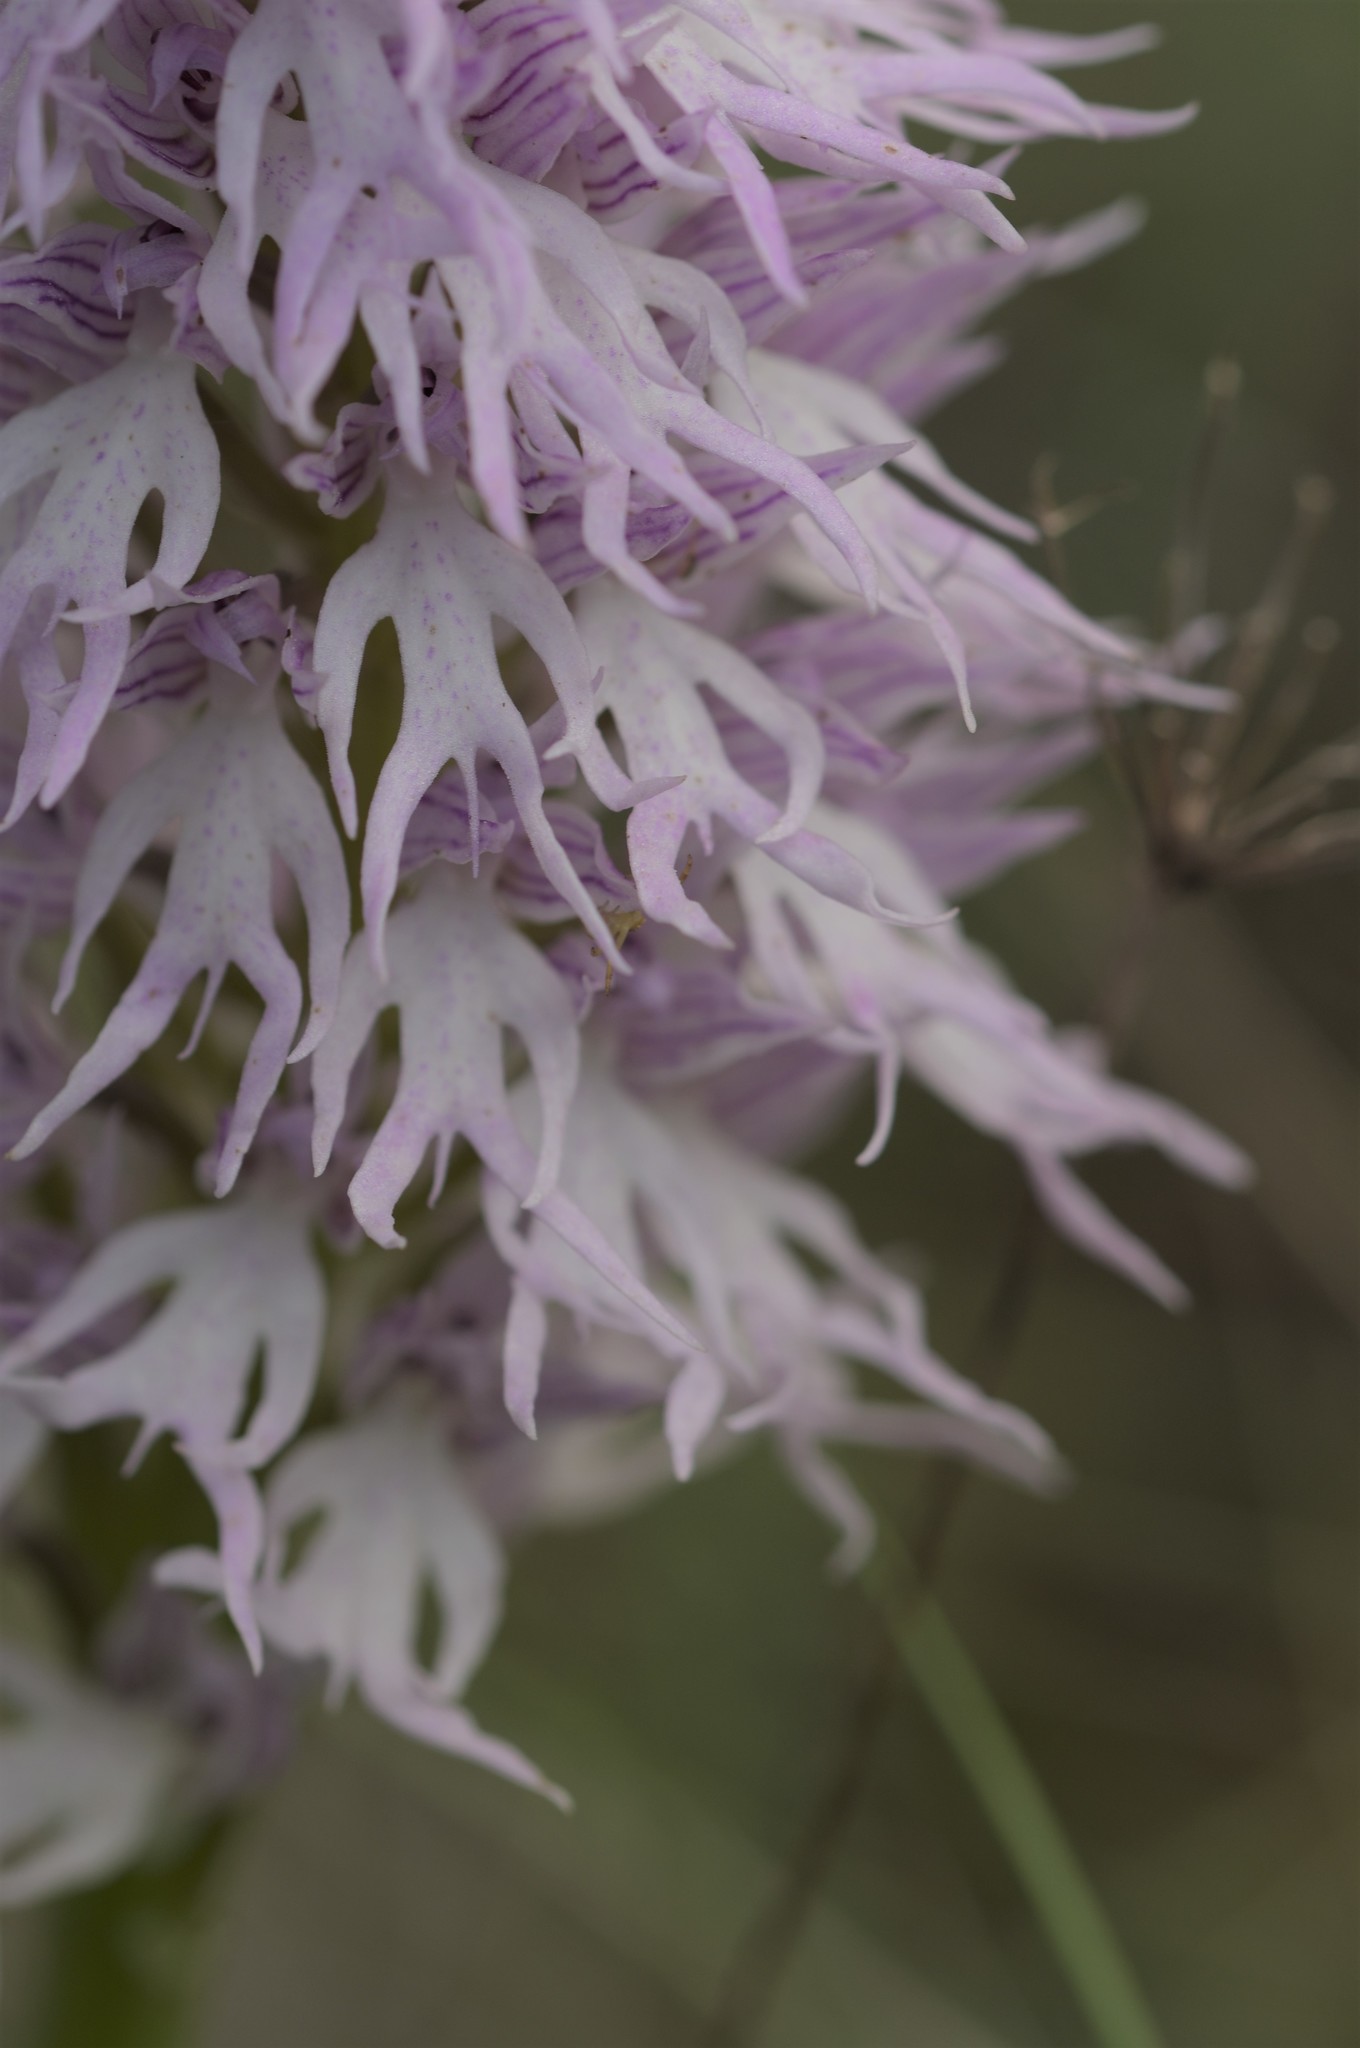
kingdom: Plantae
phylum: Tracheophyta
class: Liliopsida
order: Asparagales
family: Orchidaceae
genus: Orchis
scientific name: Orchis italica
